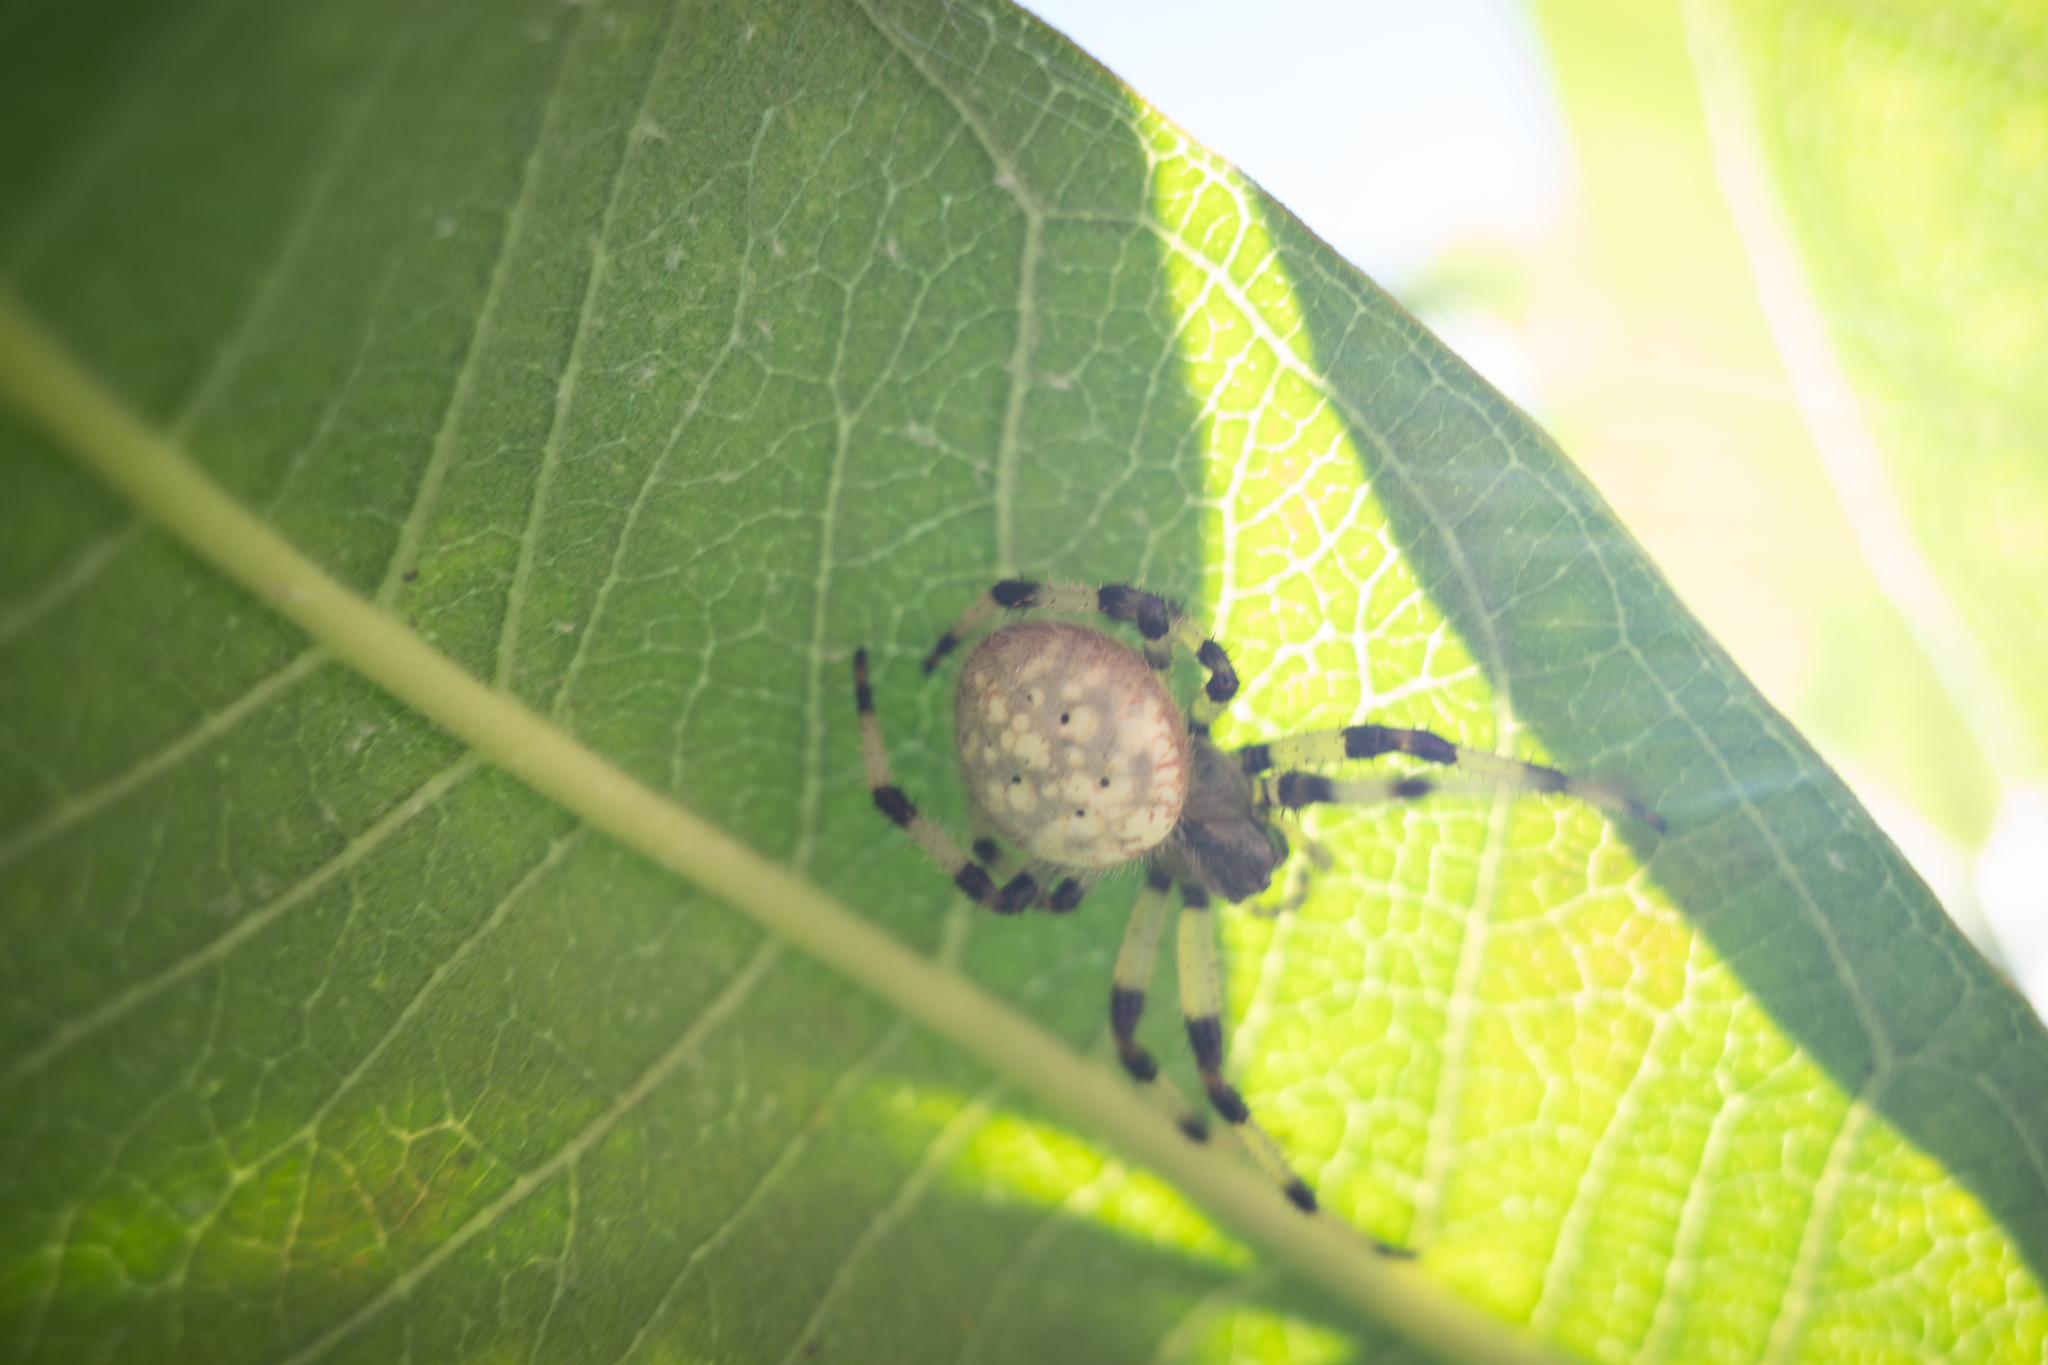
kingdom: Animalia
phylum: Arthropoda
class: Arachnida
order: Araneae
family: Araneidae
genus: Araneus
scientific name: Araneus trifolium
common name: Shamrock orbweaver
